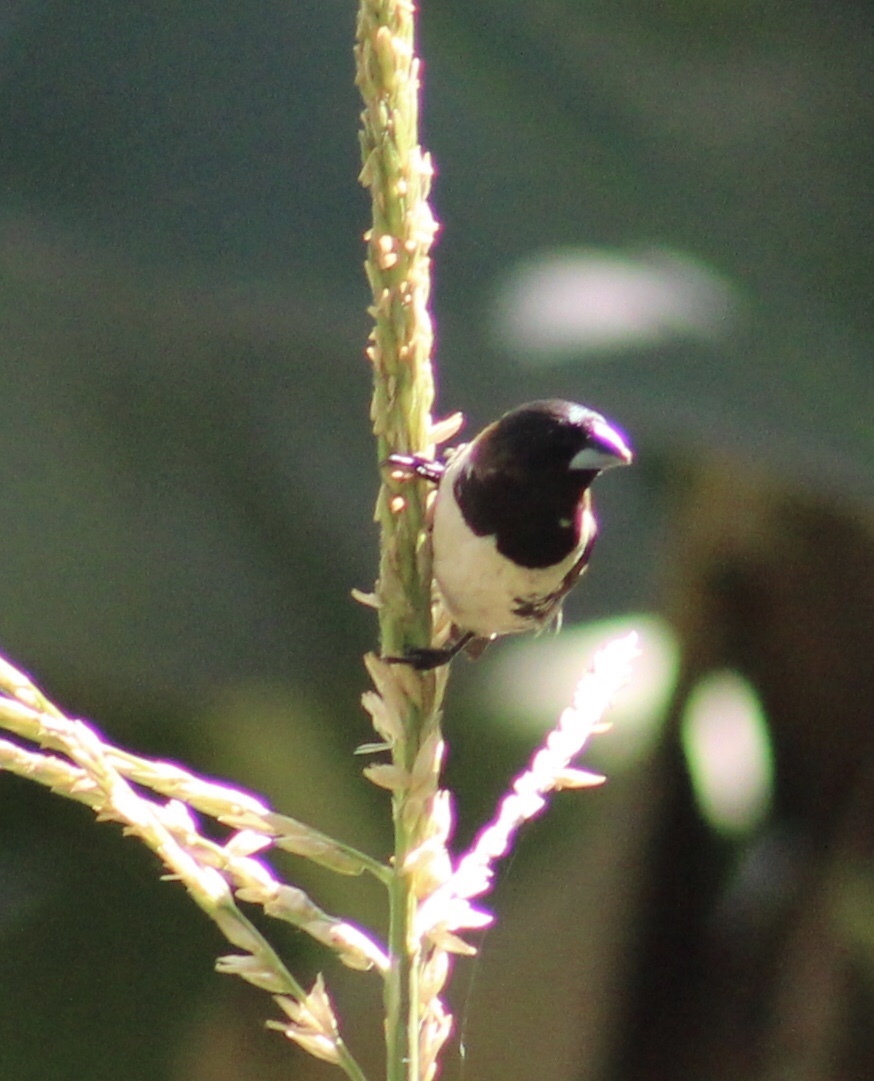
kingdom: Animalia
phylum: Chordata
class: Aves
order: Passeriformes
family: Estrildidae
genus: Lonchura
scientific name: Lonchura cucullata
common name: Bronze mannikin
